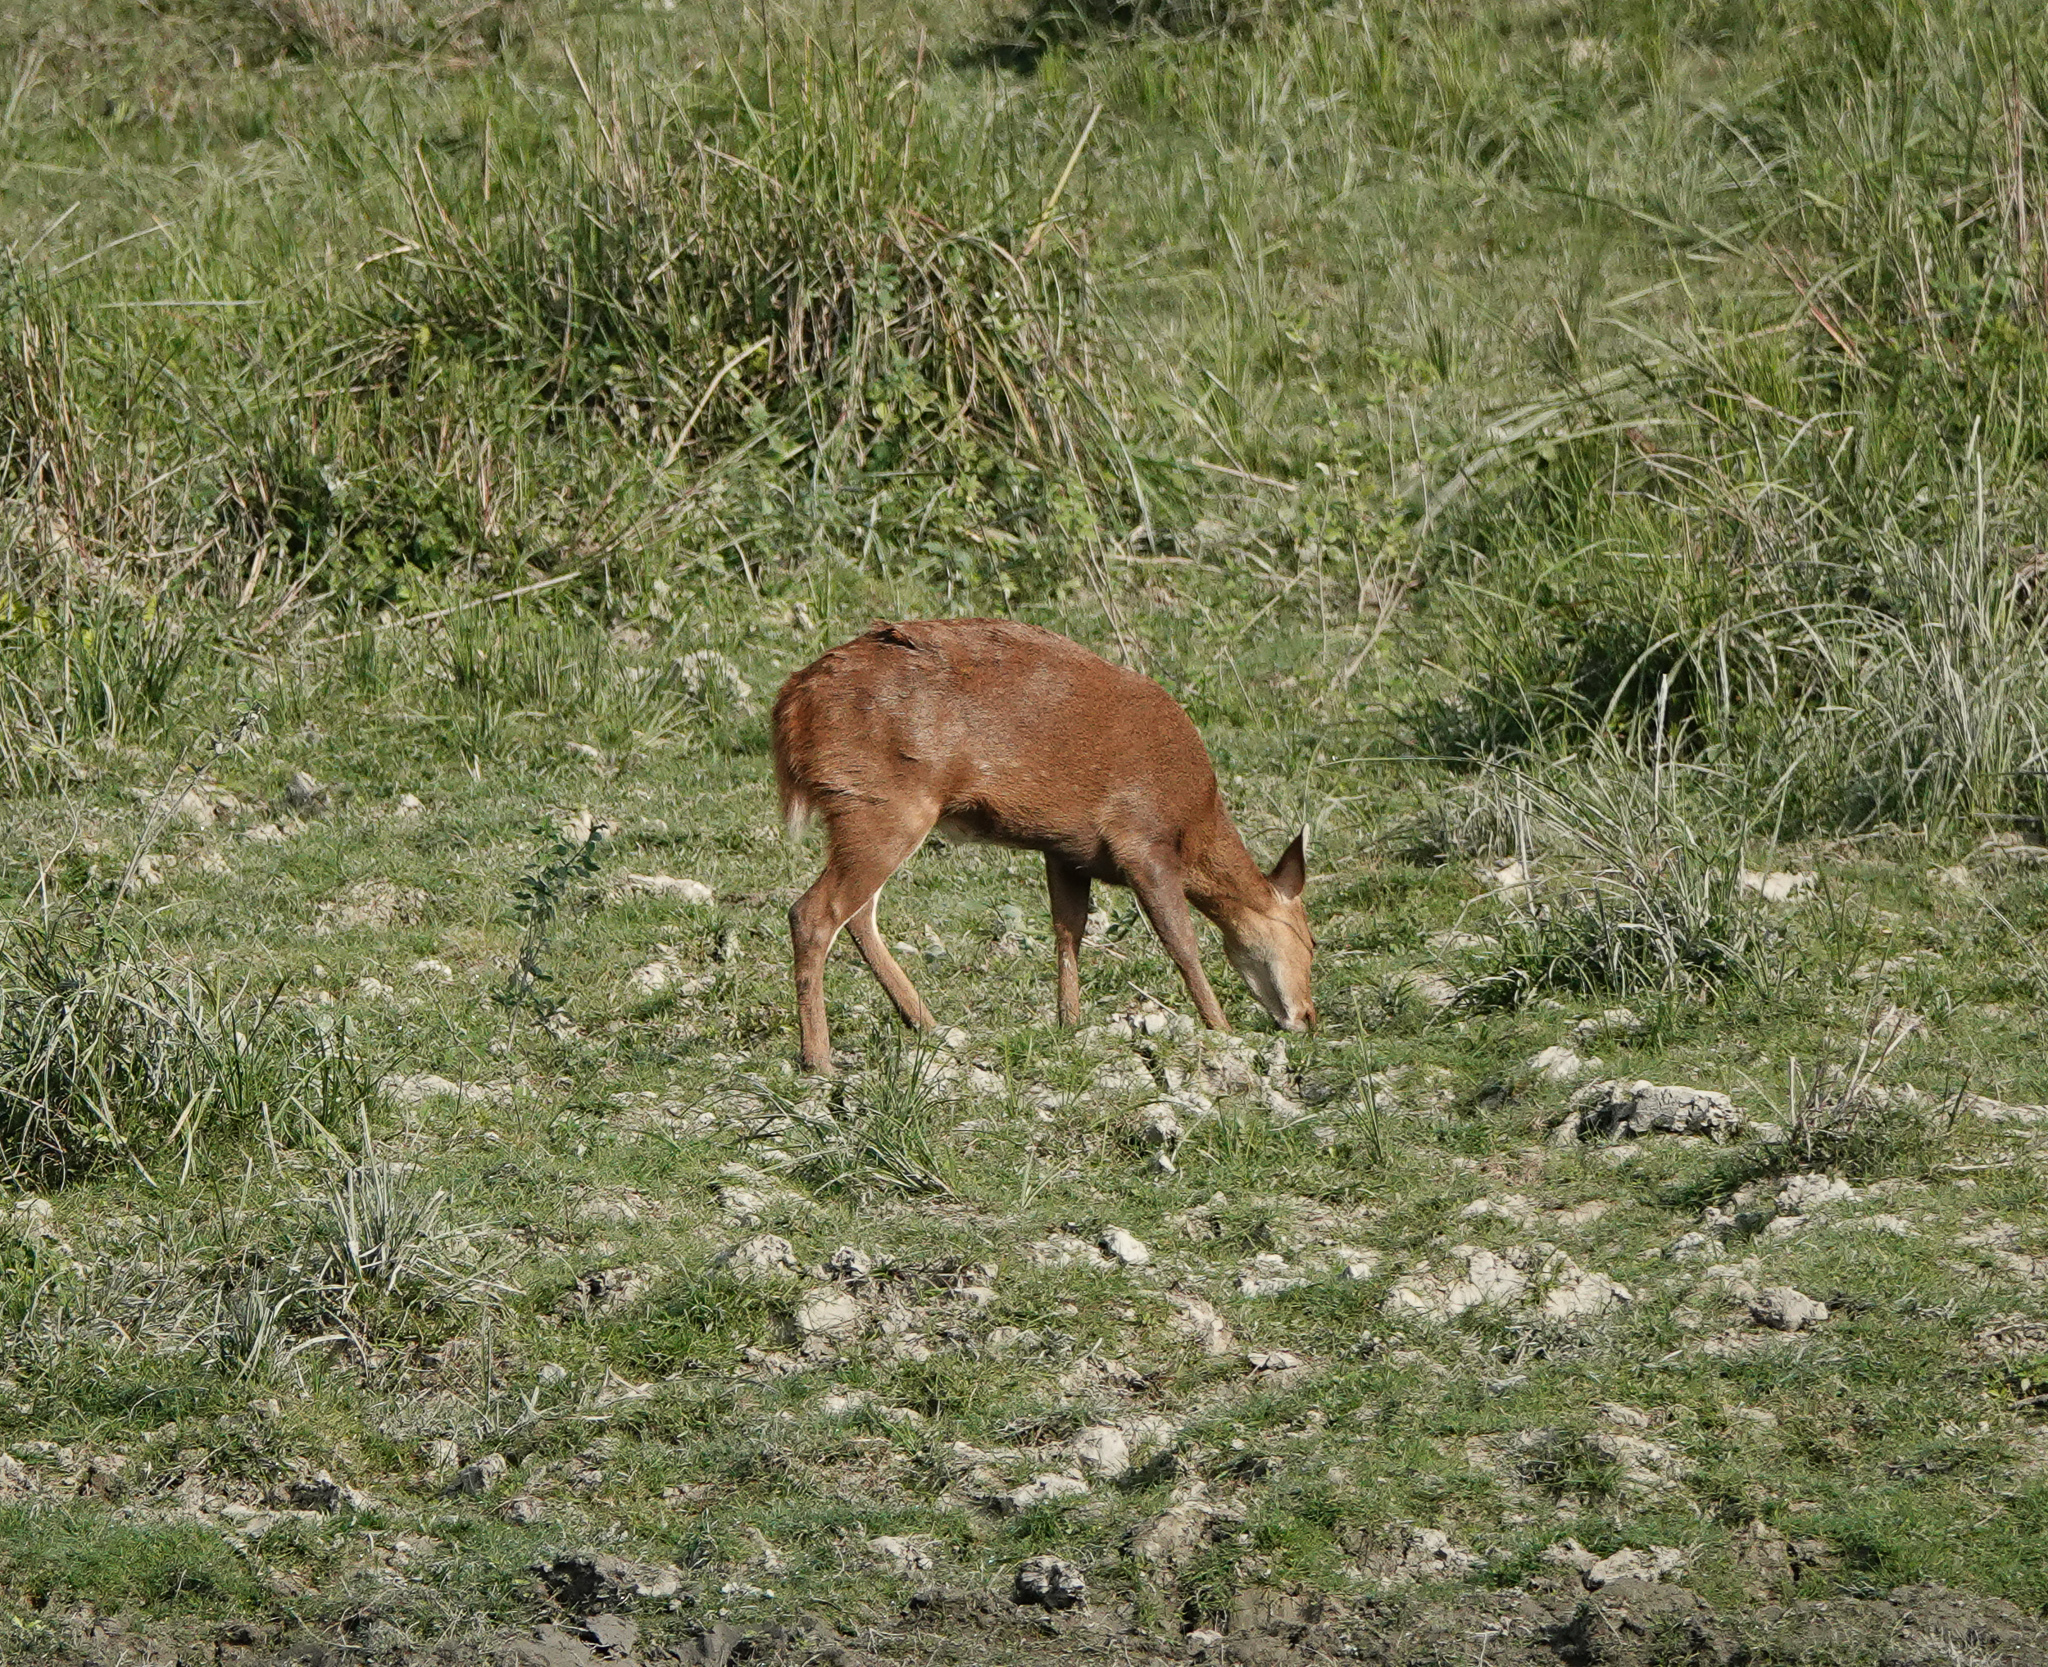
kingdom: Animalia
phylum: Chordata
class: Mammalia
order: Artiodactyla
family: Cervidae
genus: Axis
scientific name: Axis porcinus
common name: Hog deer
